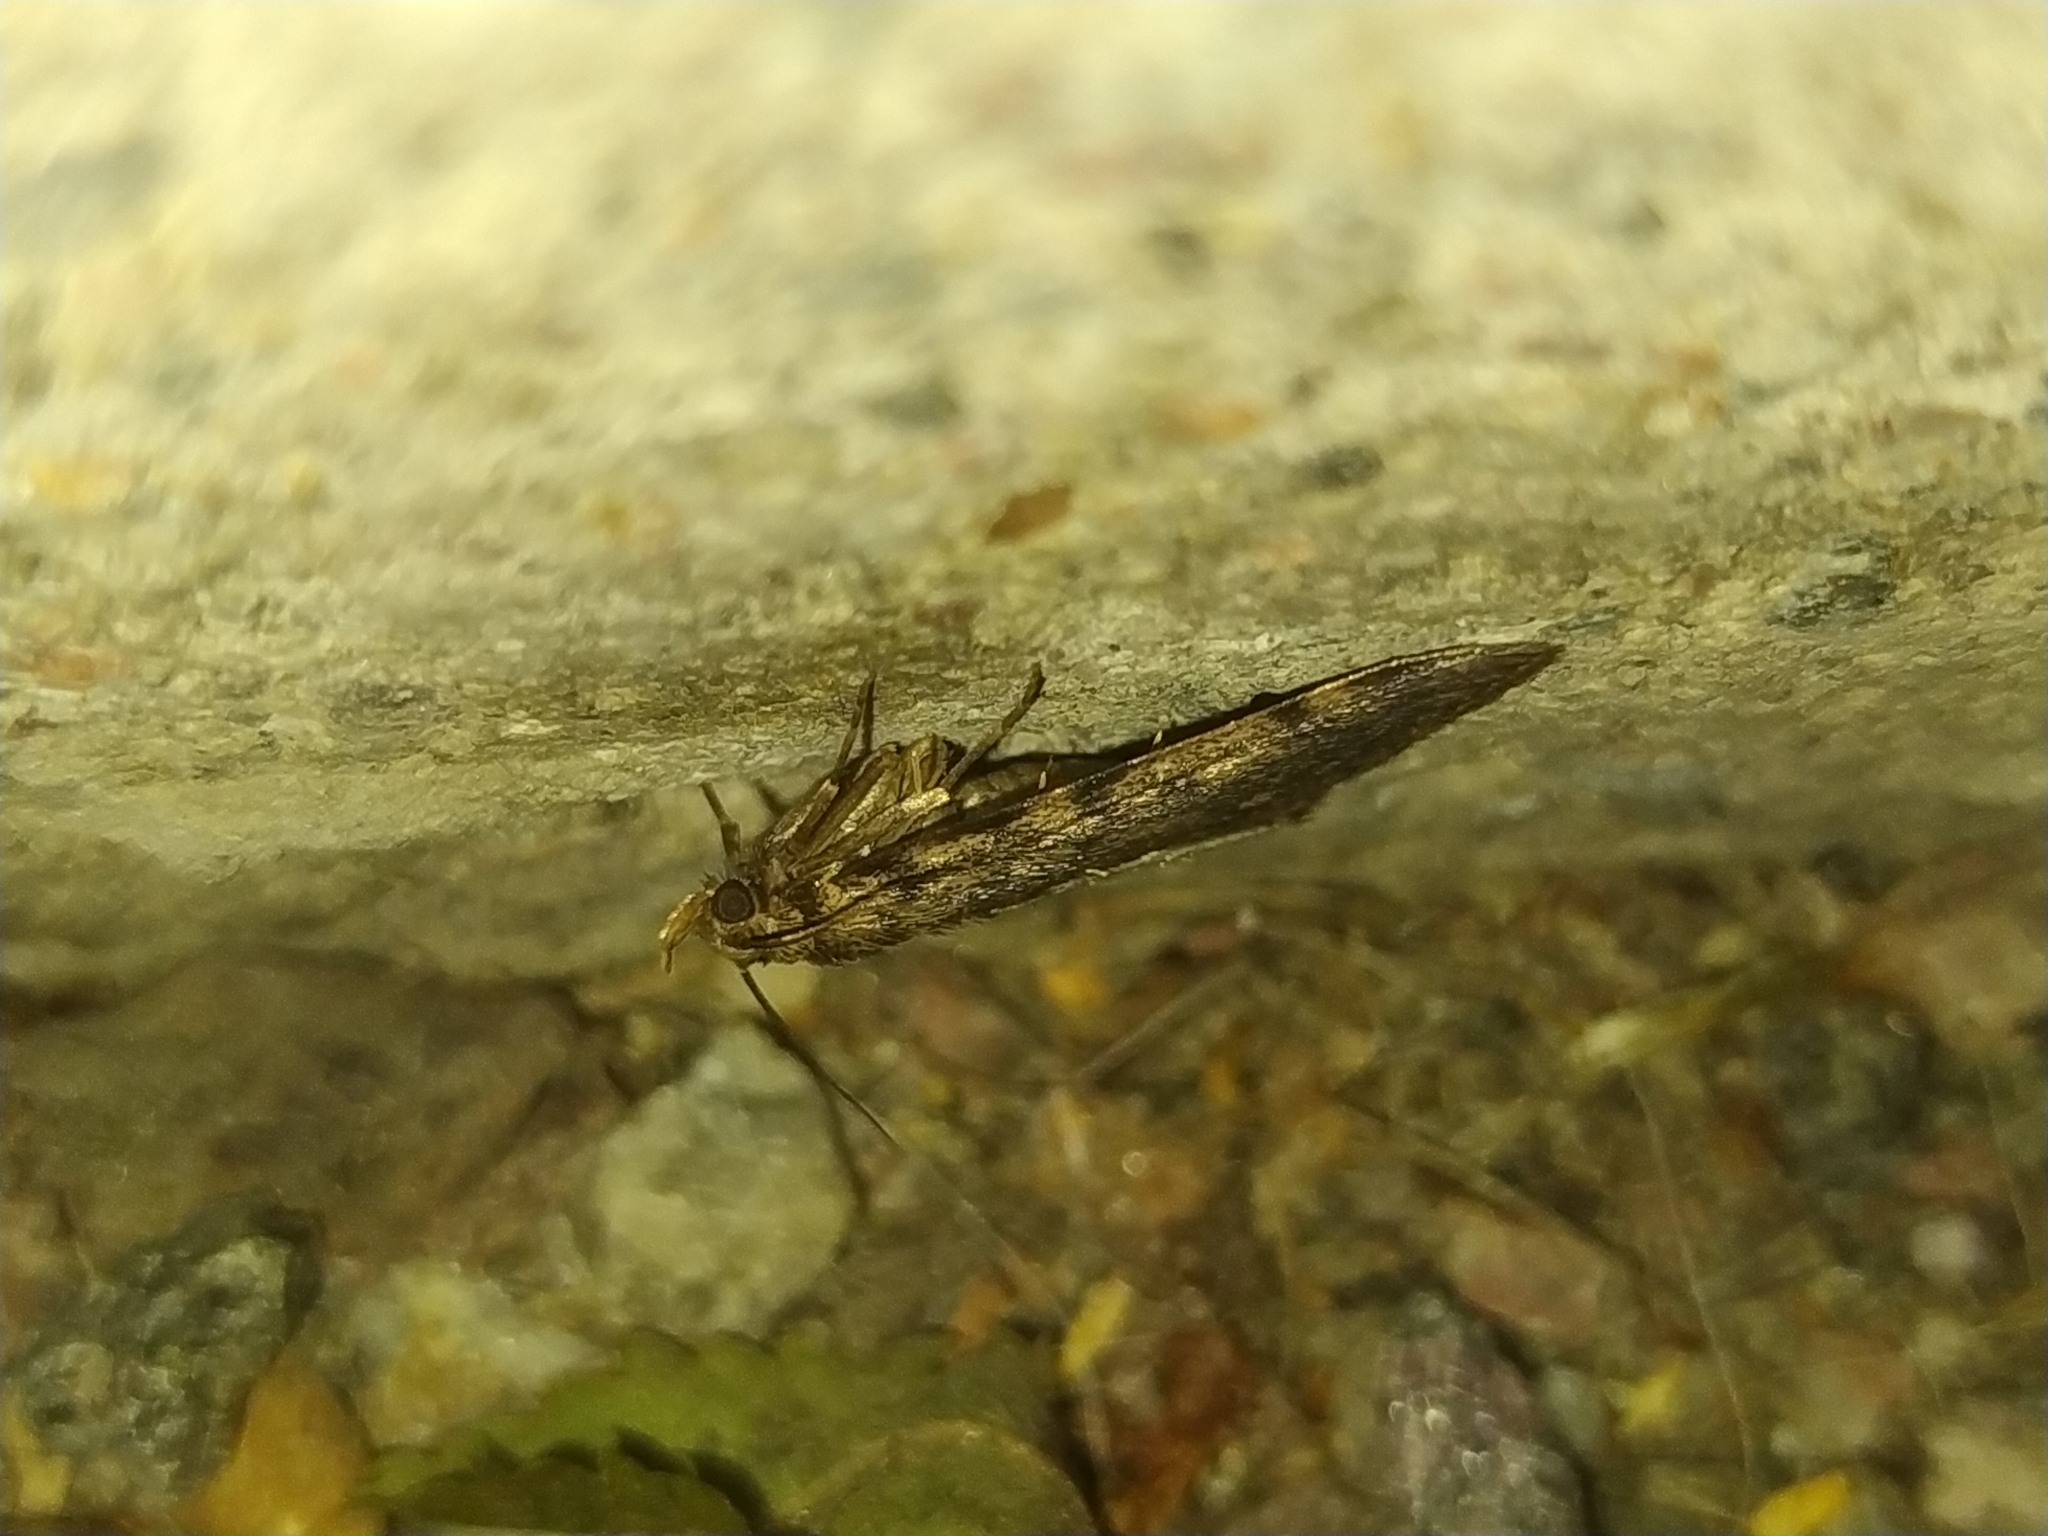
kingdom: Animalia
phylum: Arthropoda
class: Insecta
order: Lepidoptera
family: Pyralidae
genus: Aglossa
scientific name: Aglossa pinguinalis
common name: Large tabby
